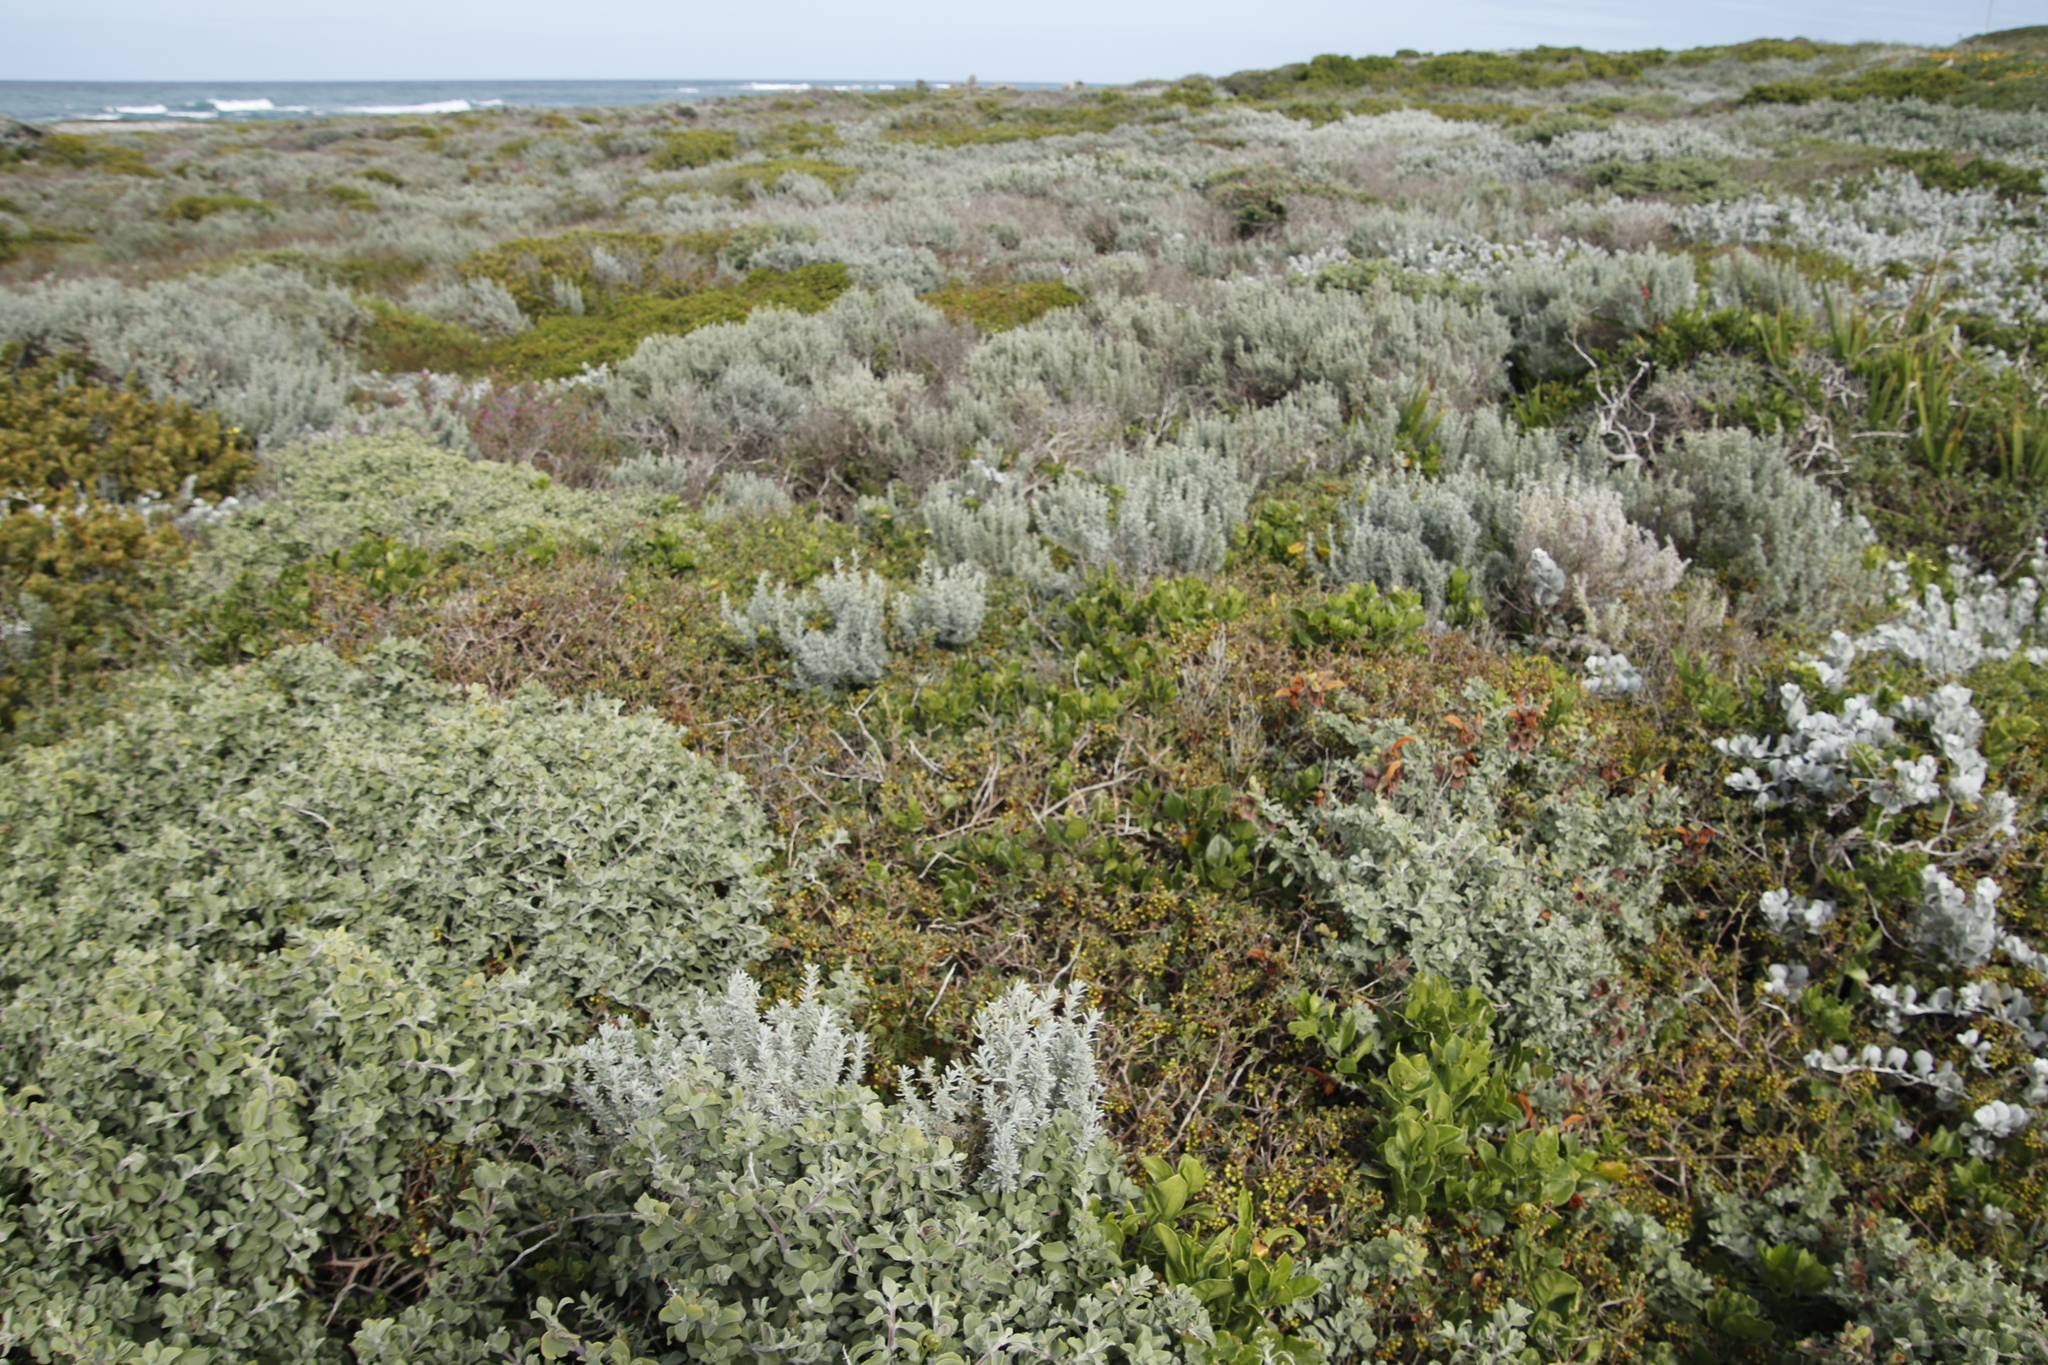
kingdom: Plantae
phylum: Tracheophyta
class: Magnoliopsida
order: Sapindales
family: Anacardiaceae
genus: Searsia
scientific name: Searsia glauca
